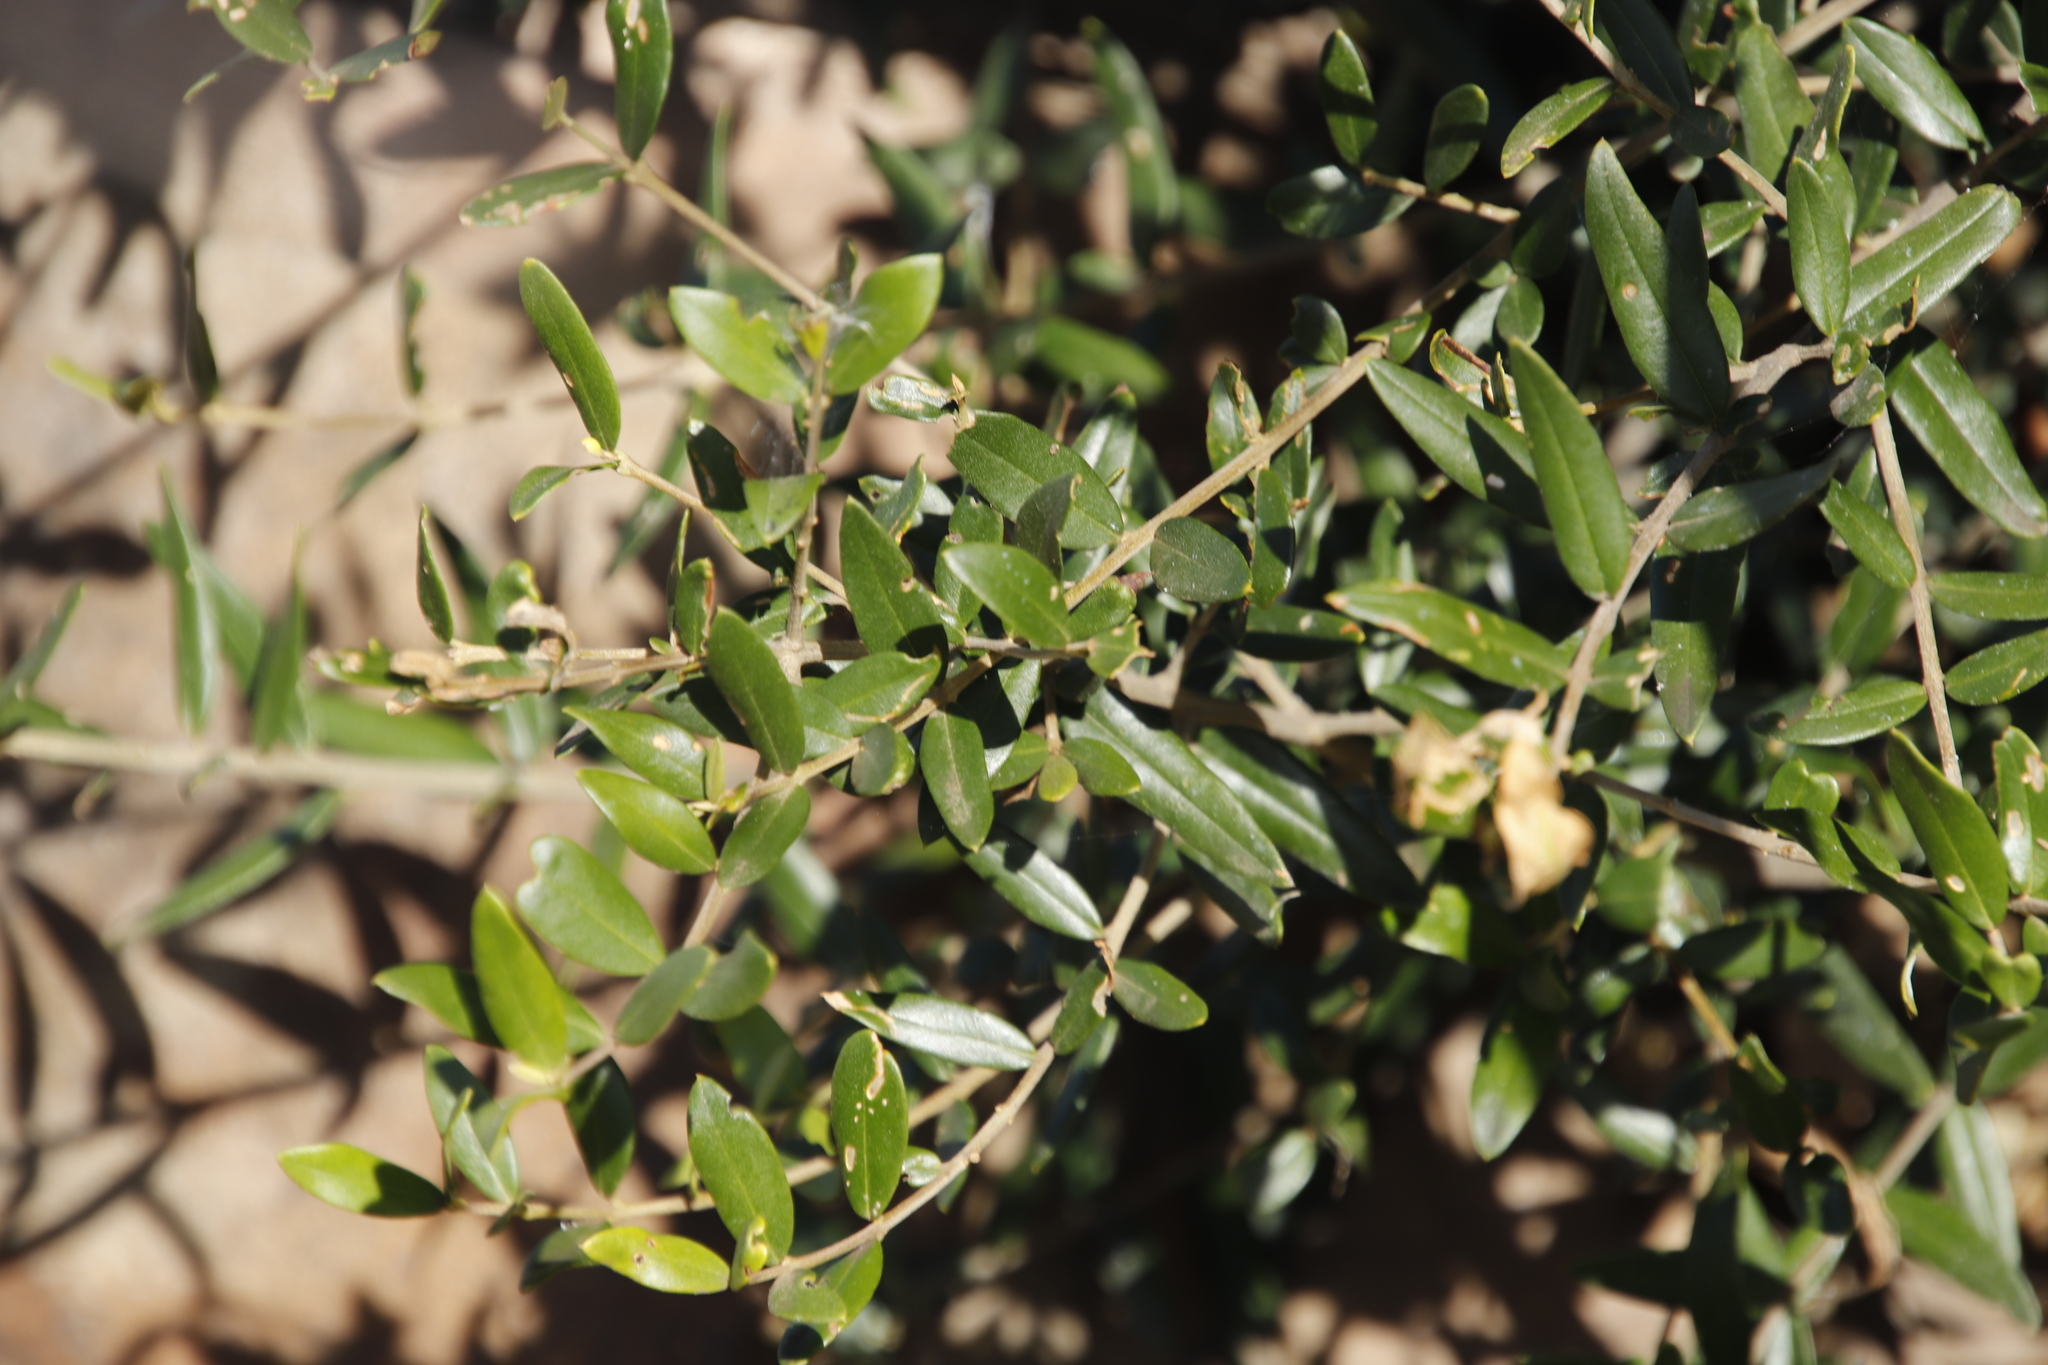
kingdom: Plantae
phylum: Tracheophyta
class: Magnoliopsida
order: Lamiales
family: Oleaceae
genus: Olea
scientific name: Olea europaea
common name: Olive
